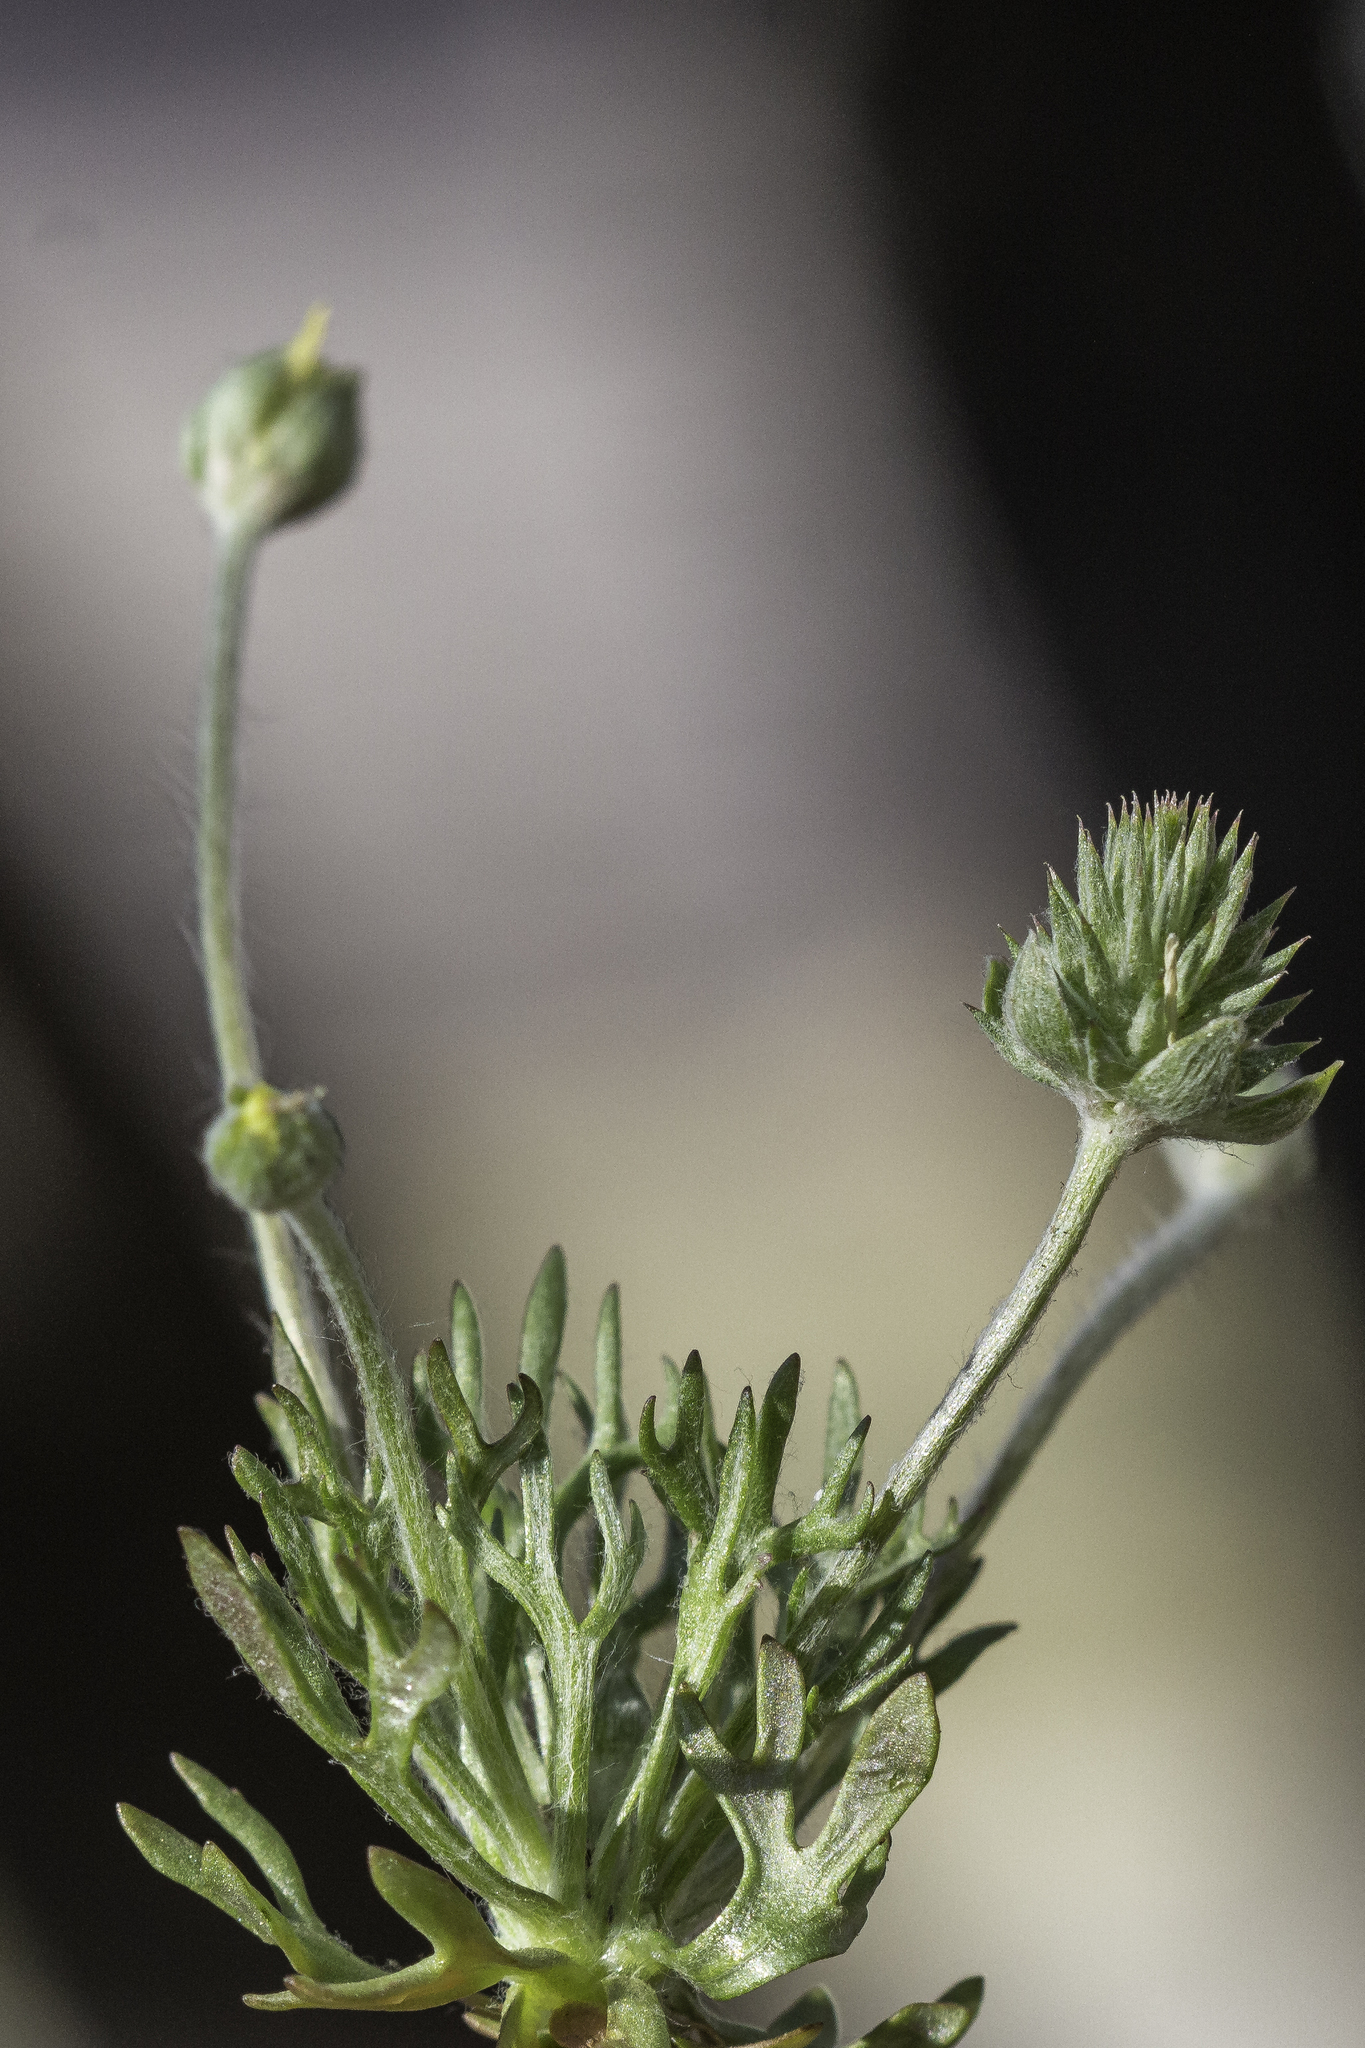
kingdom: Plantae
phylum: Tracheophyta
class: Magnoliopsida
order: Ranunculales
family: Ranunculaceae
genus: Ceratocephala
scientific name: Ceratocephala orthoceras
